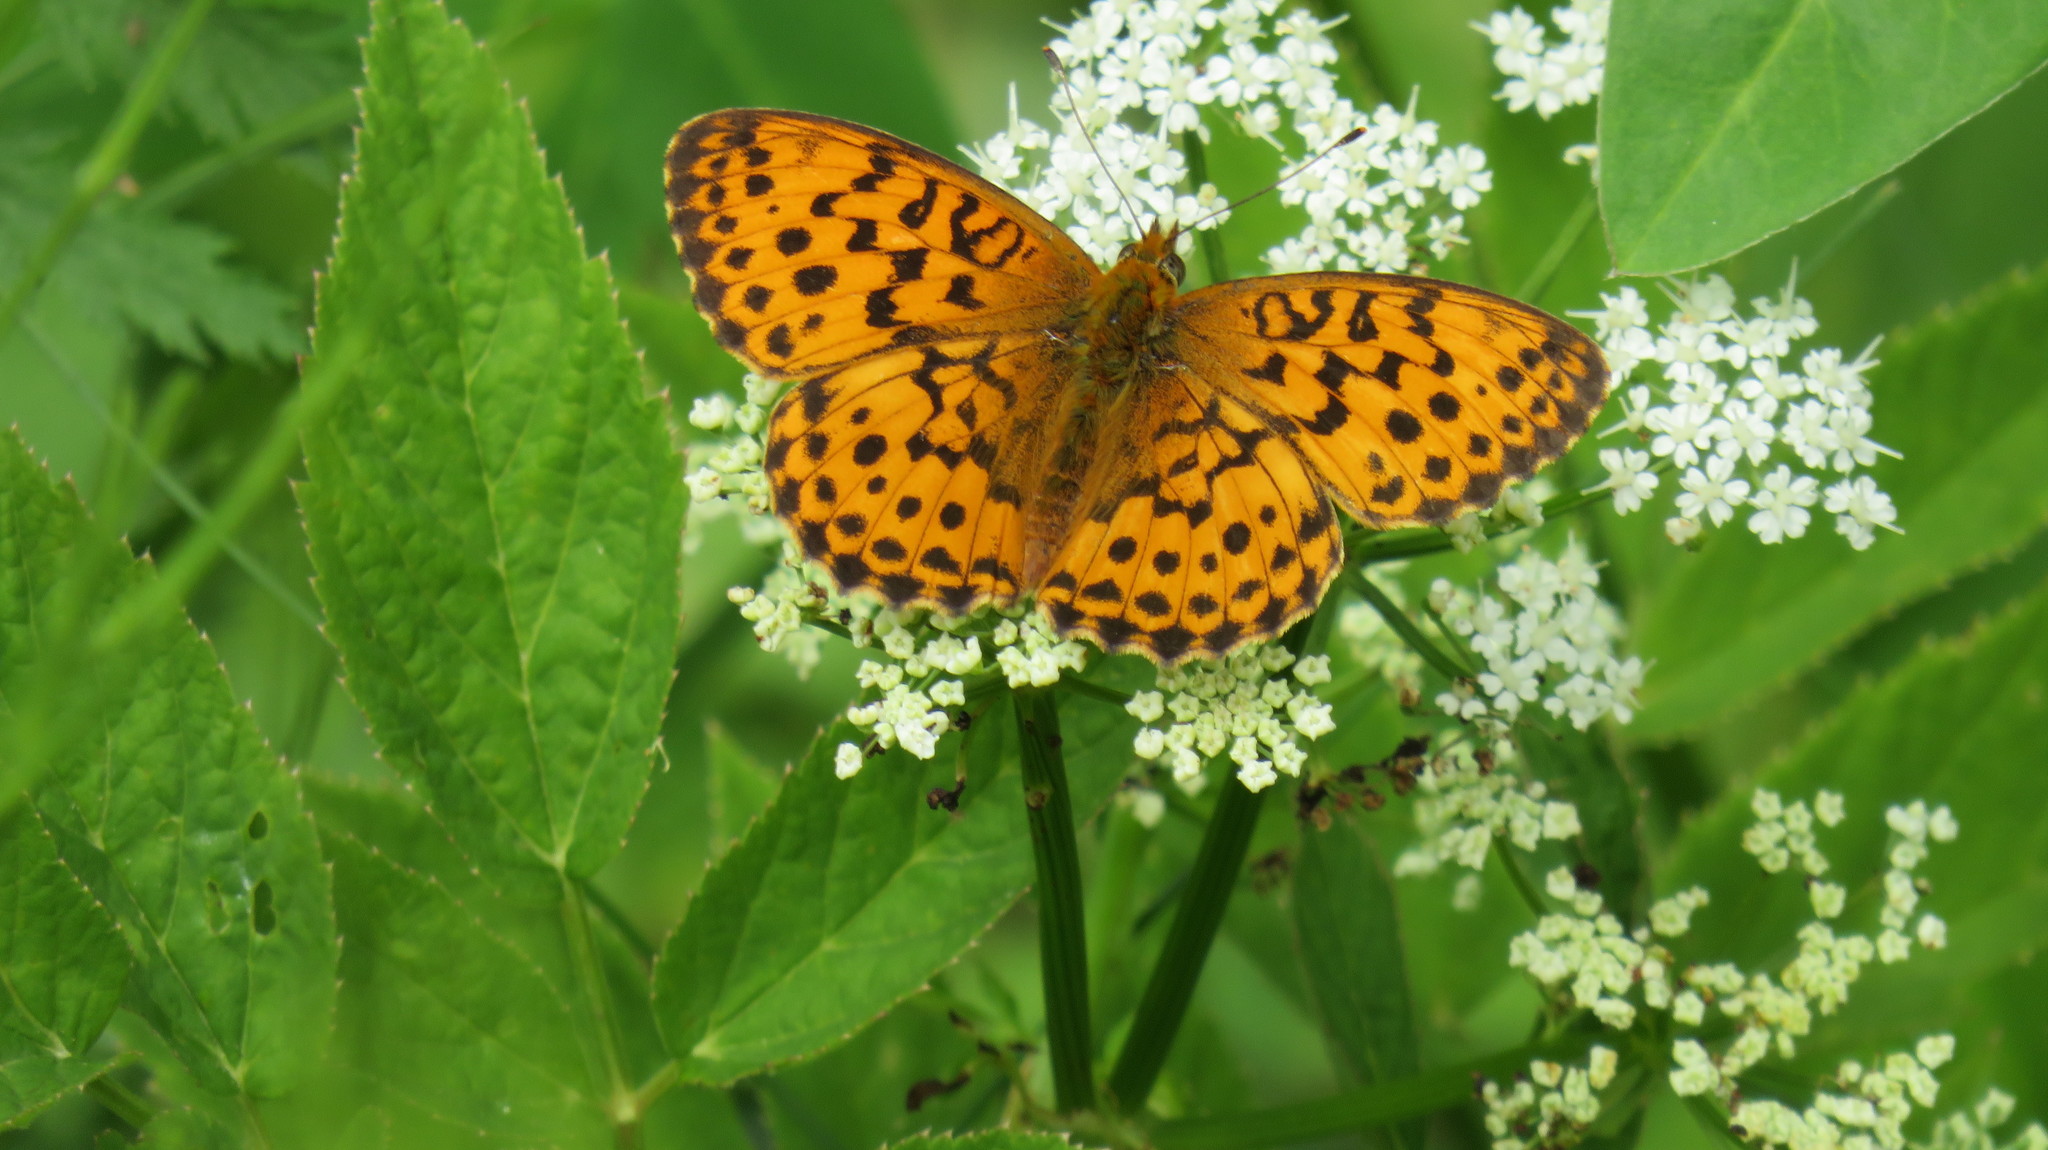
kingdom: Animalia
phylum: Arthropoda
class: Insecta
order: Lepidoptera
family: Nymphalidae
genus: Brenthis
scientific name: Brenthis daphne
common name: Marbled fritillary
